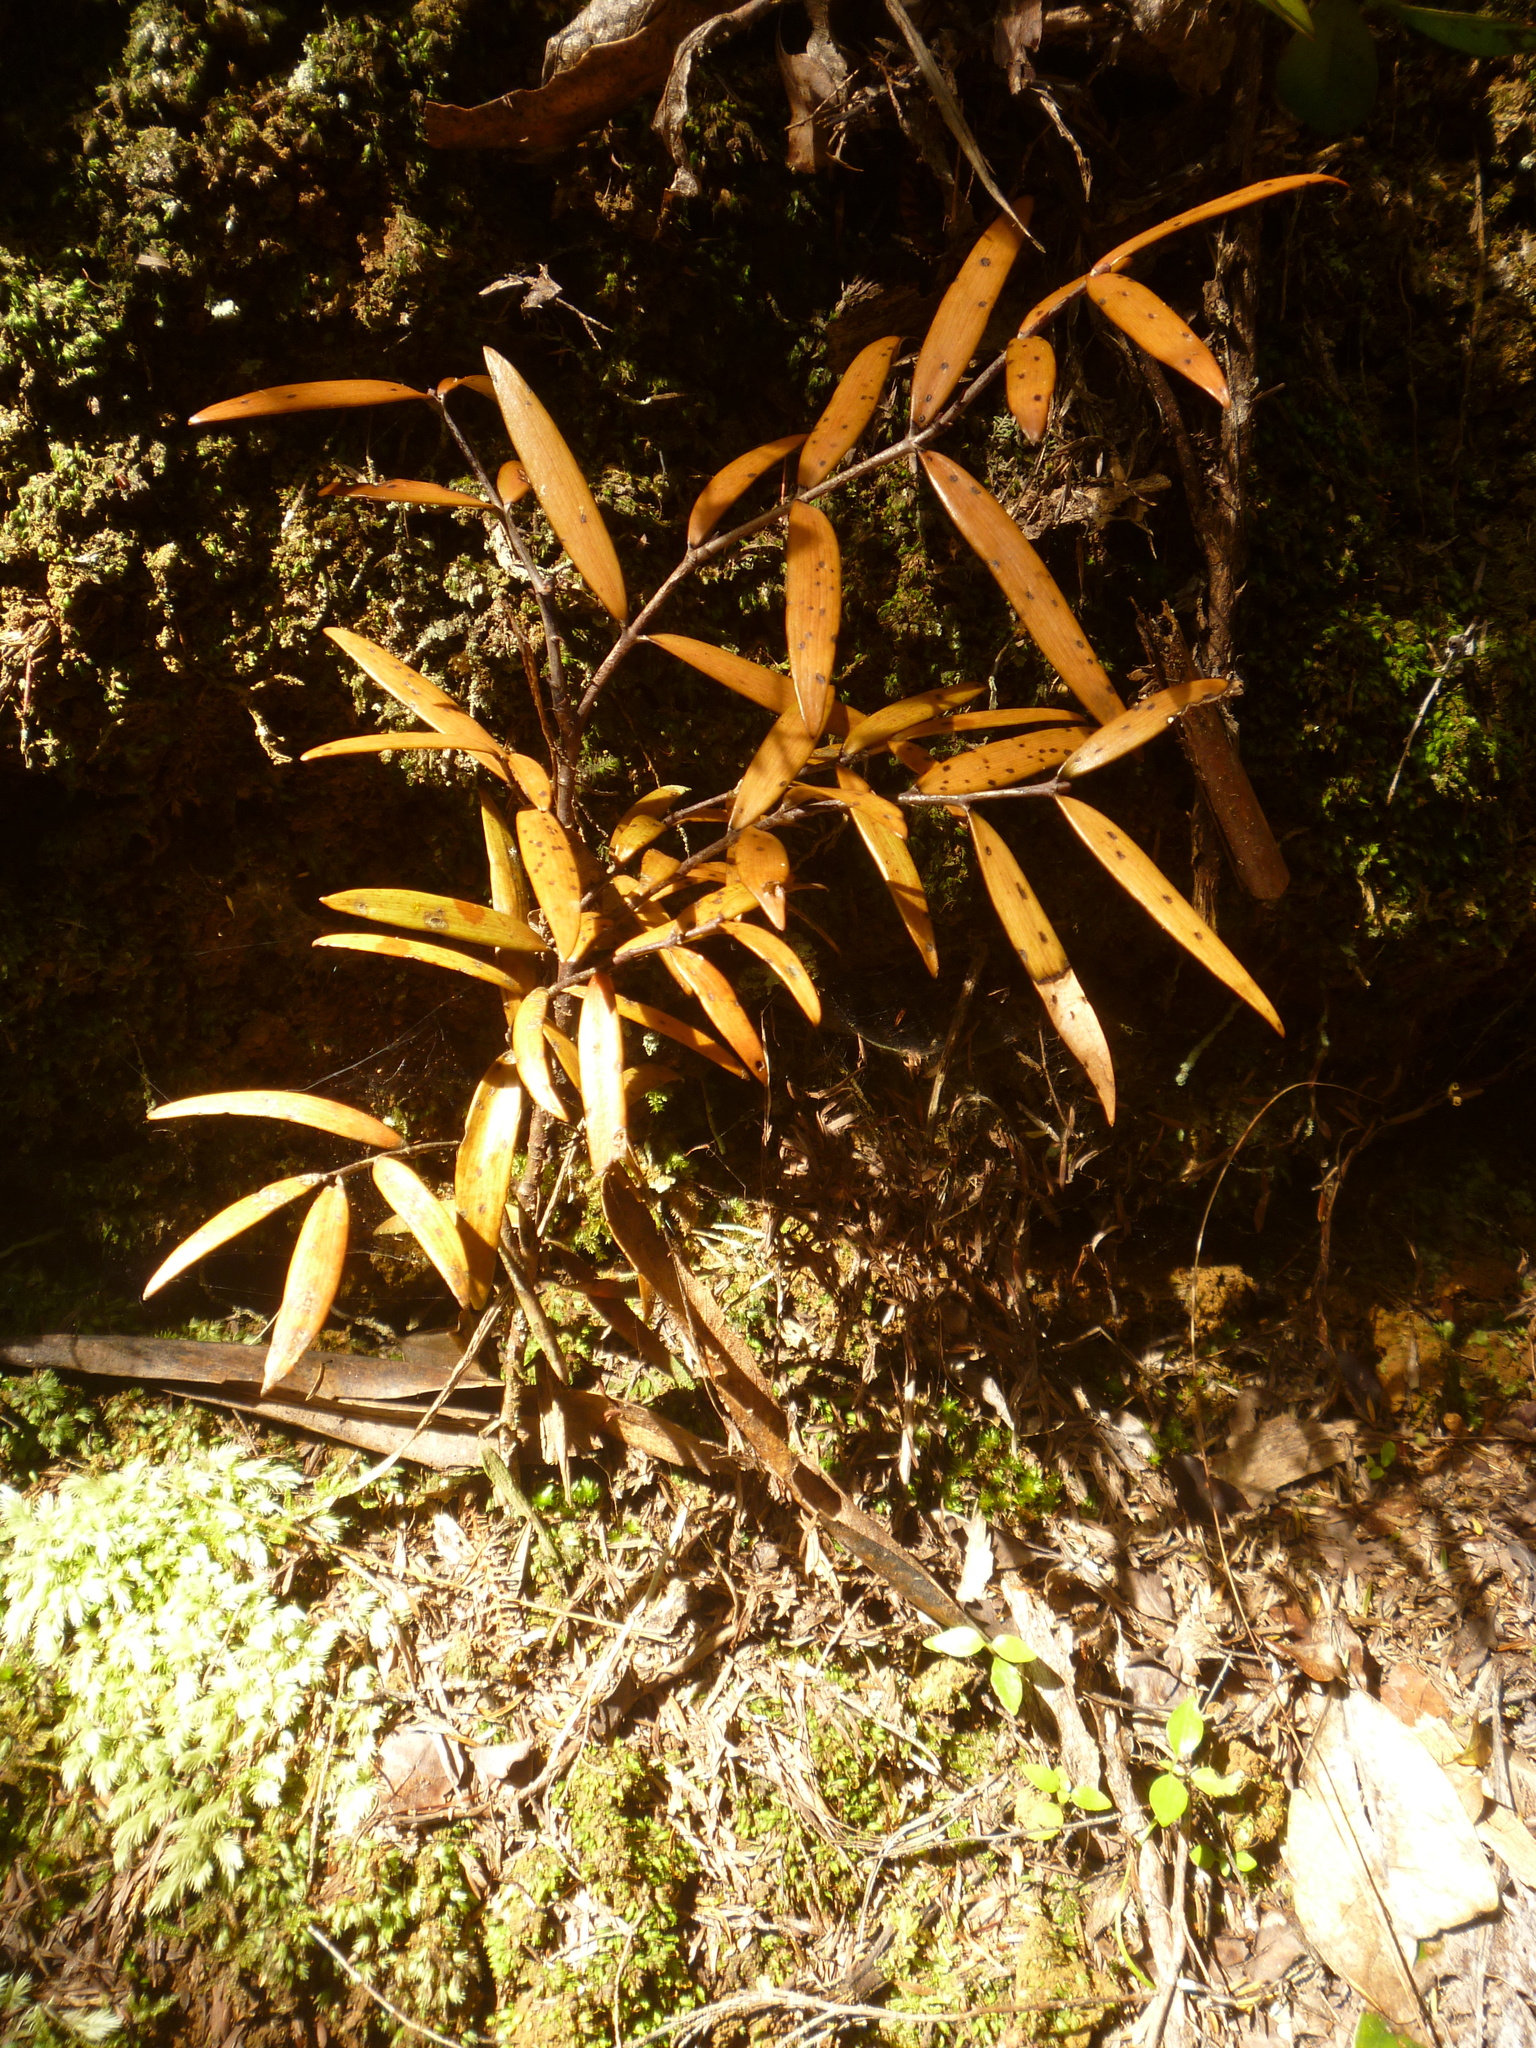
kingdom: Plantae
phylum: Tracheophyta
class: Pinopsida
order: Pinales
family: Araucariaceae
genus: Agathis
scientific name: Agathis australis
